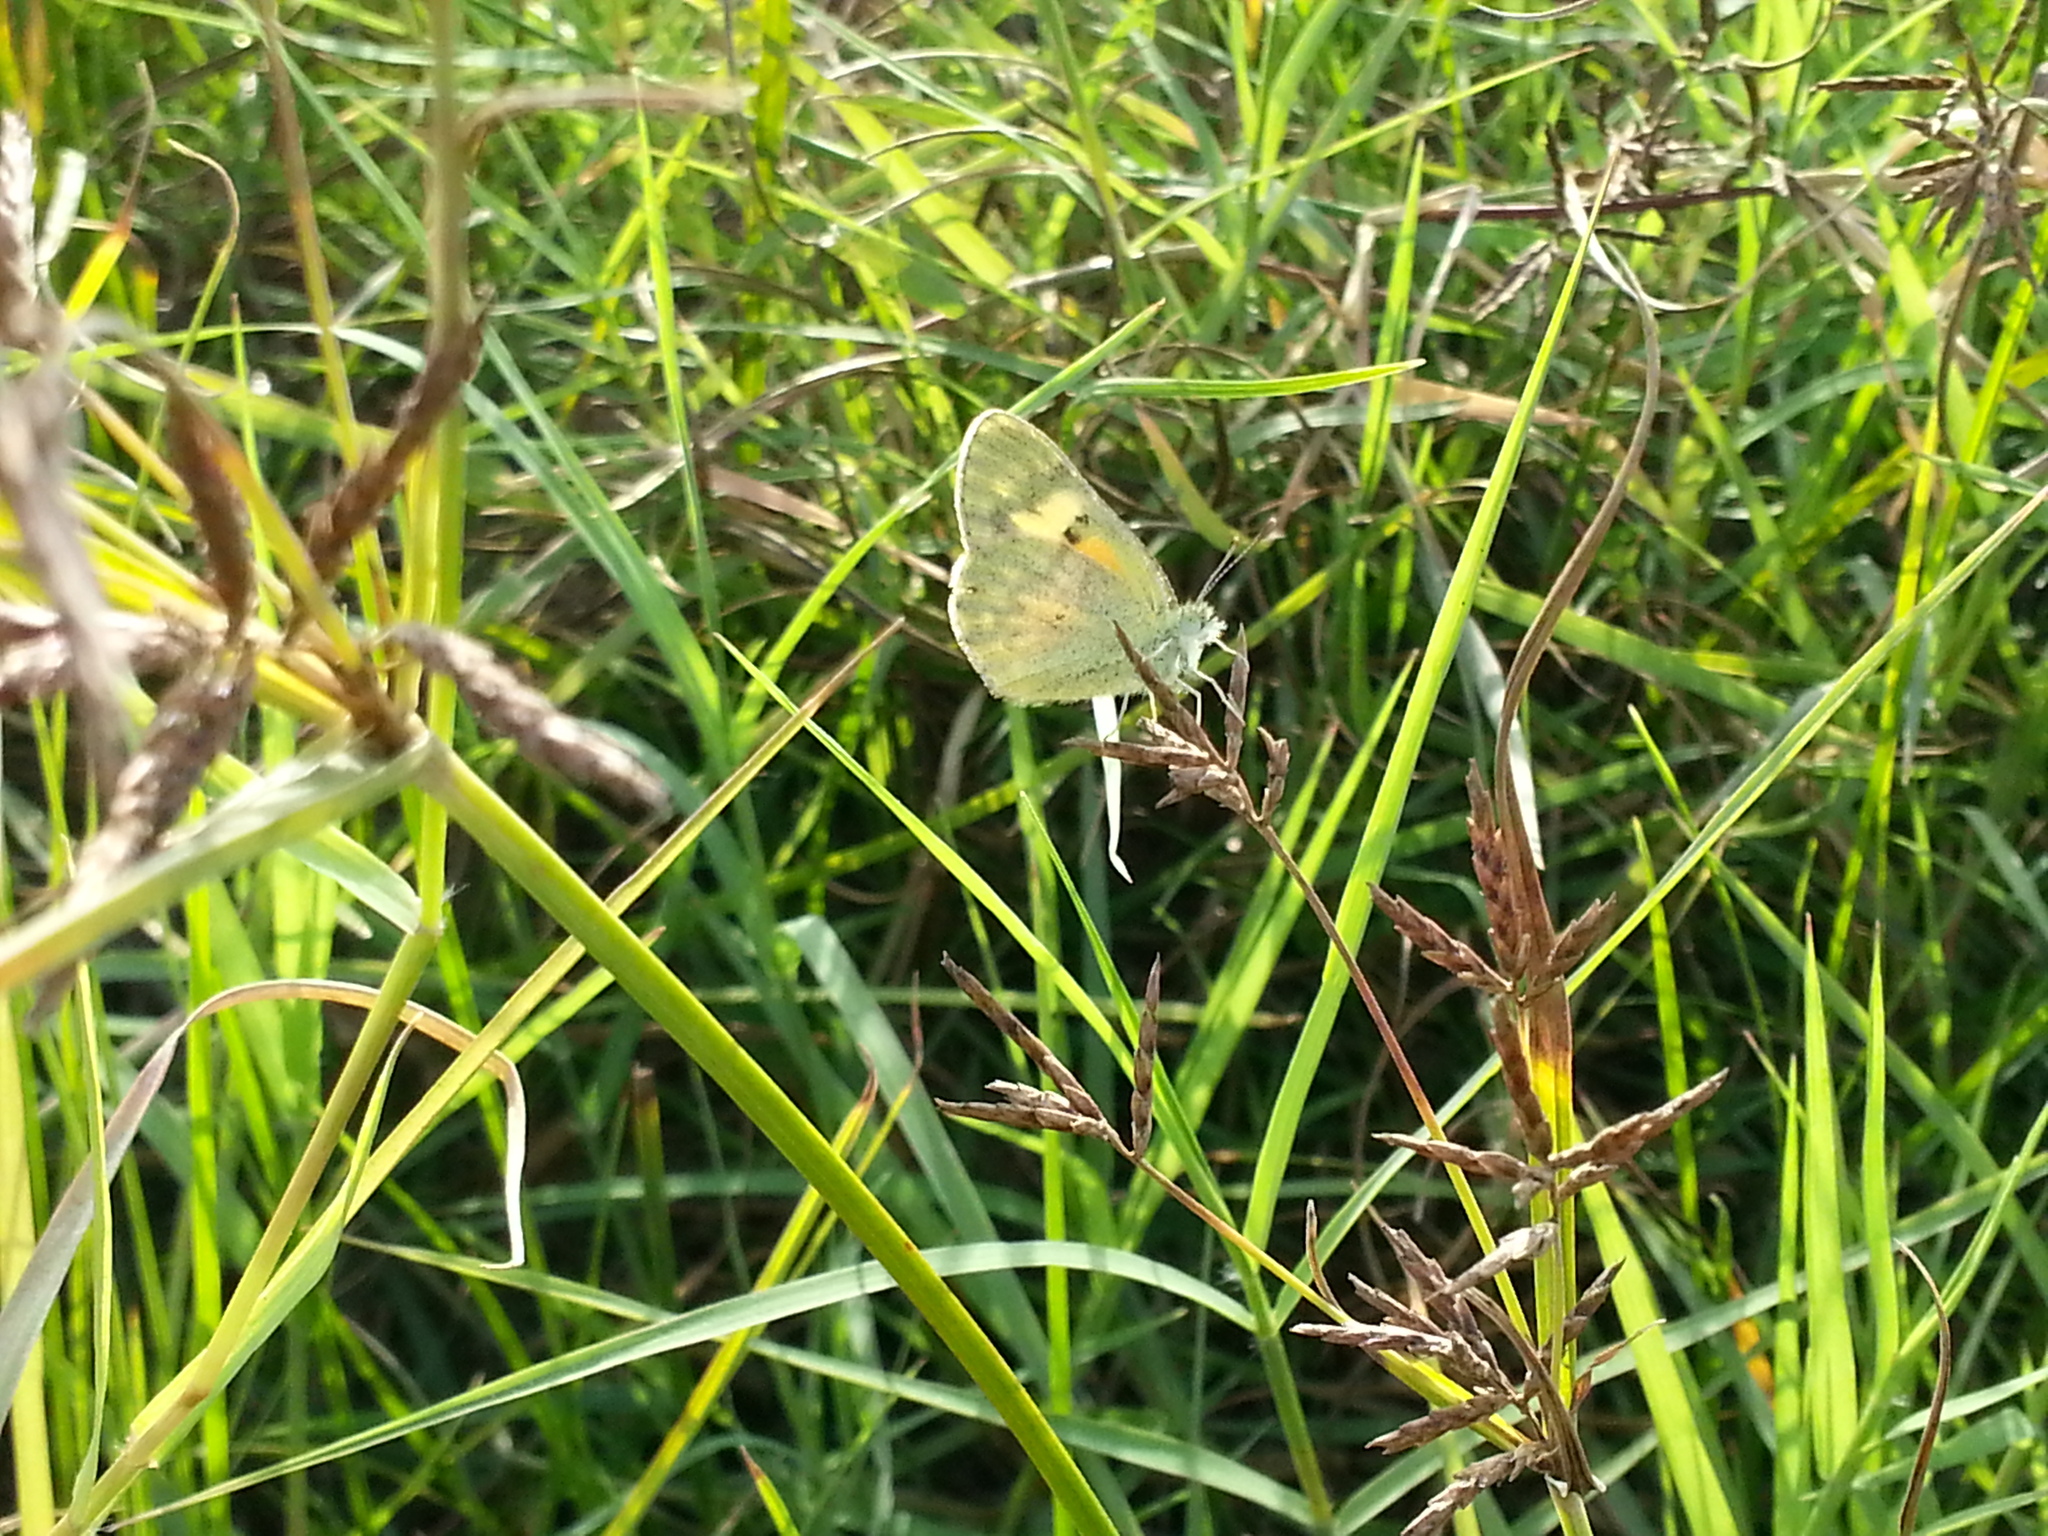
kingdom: Animalia
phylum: Arthropoda
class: Insecta
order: Lepidoptera
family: Pieridae
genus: Colotis
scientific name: Colotis amata
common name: Small salmon arab
